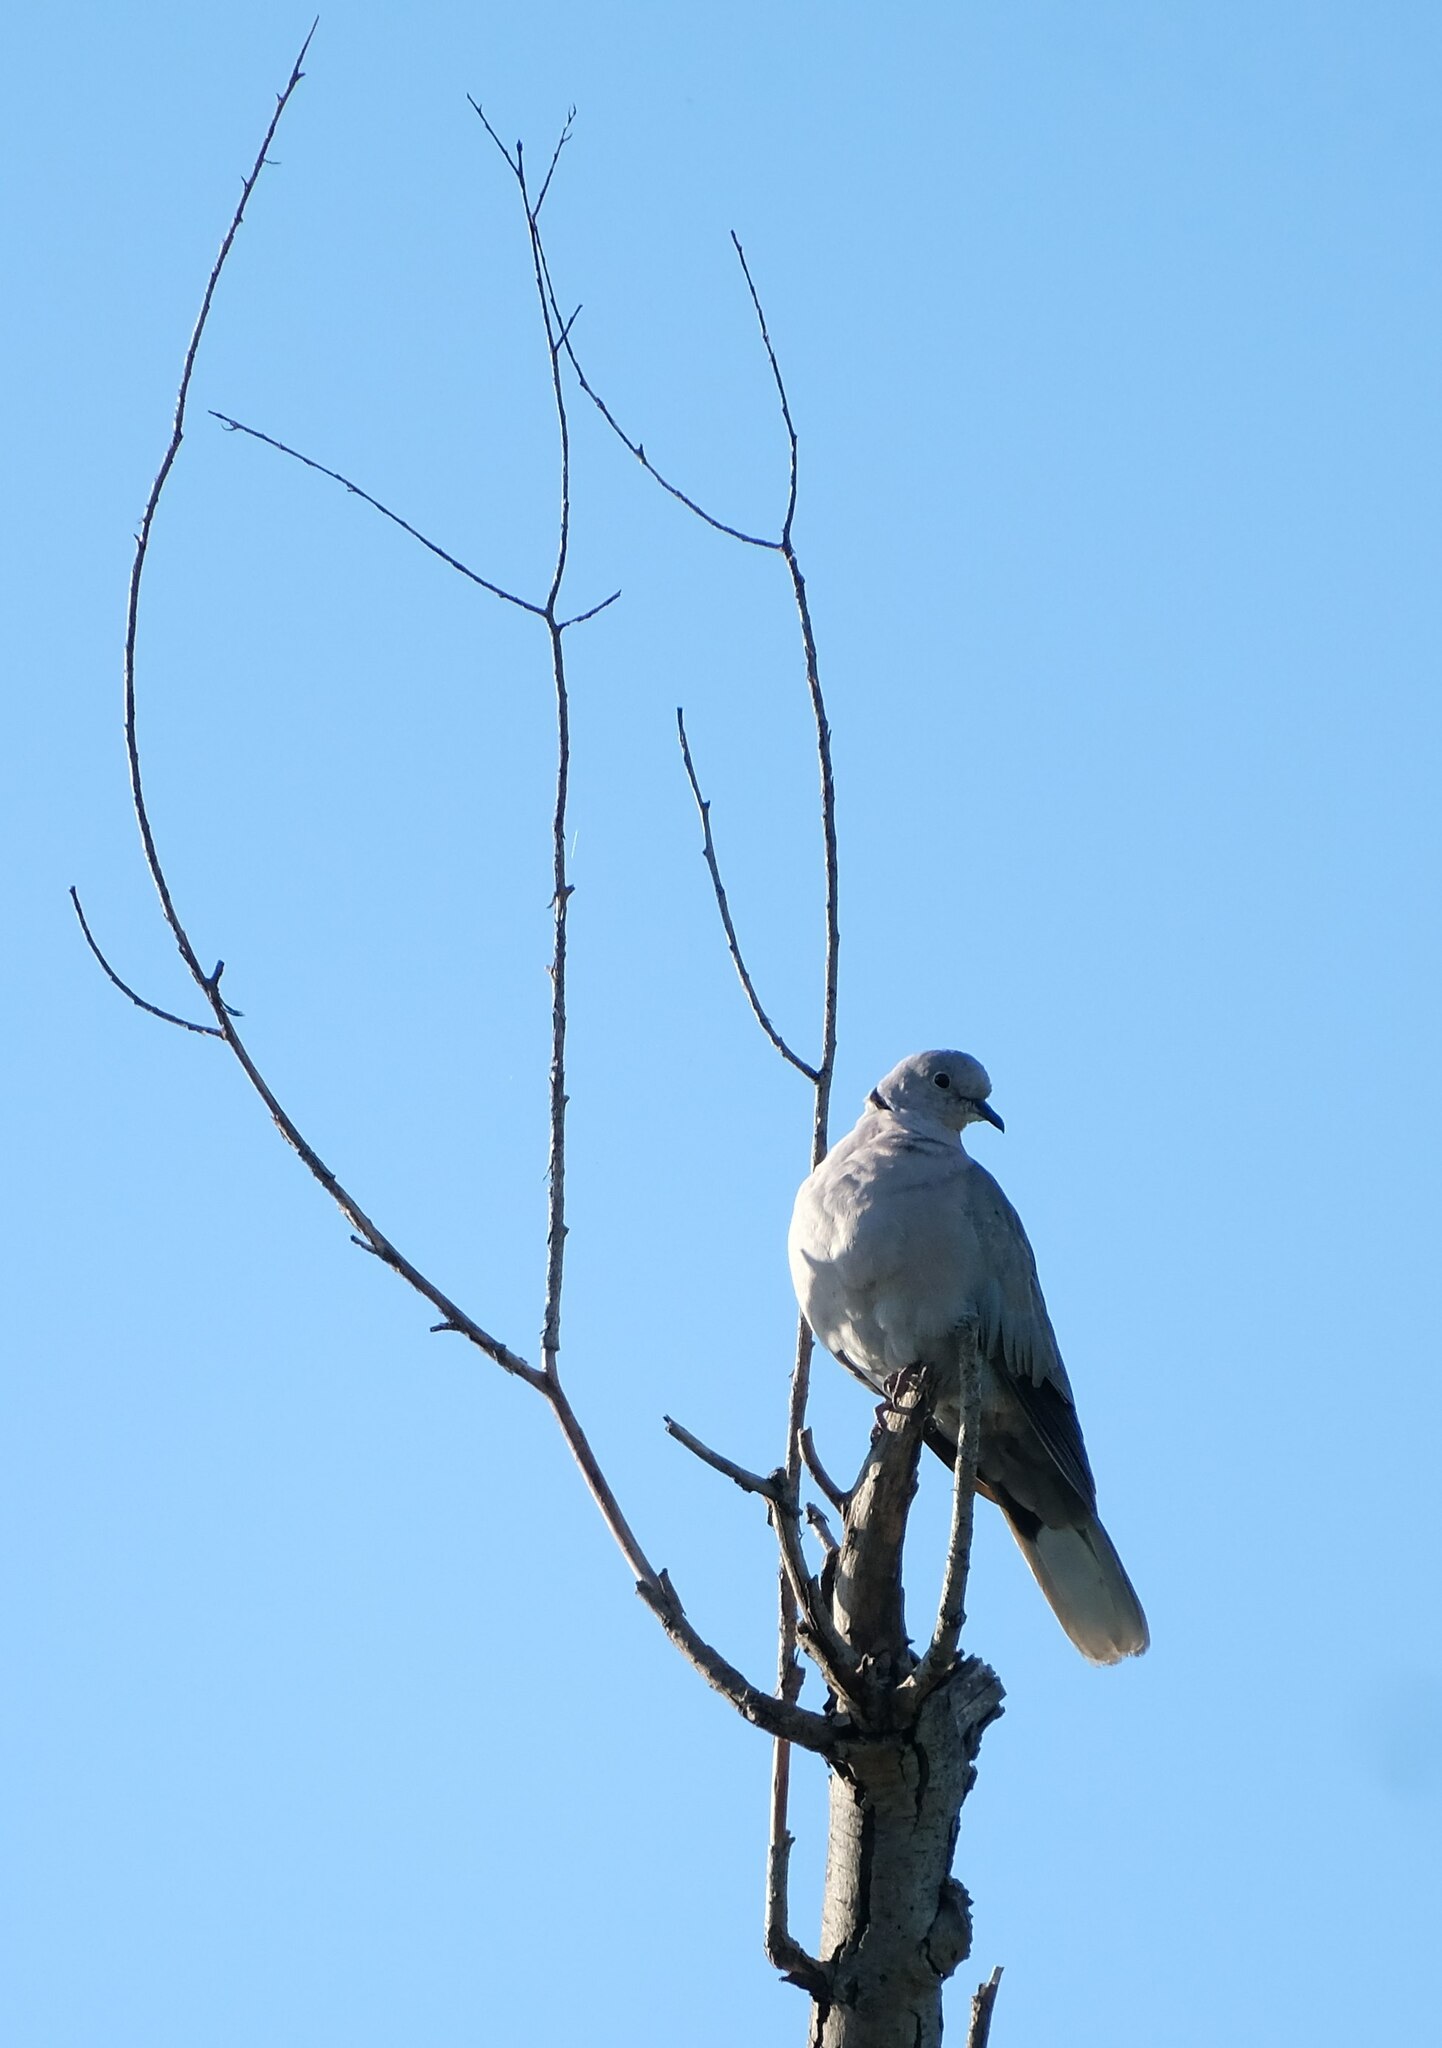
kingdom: Animalia
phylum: Chordata
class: Aves
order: Columbiformes
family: Columbidae
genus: Streptopelia
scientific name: Streptopelia decaocto
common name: Eurasian collared dove
